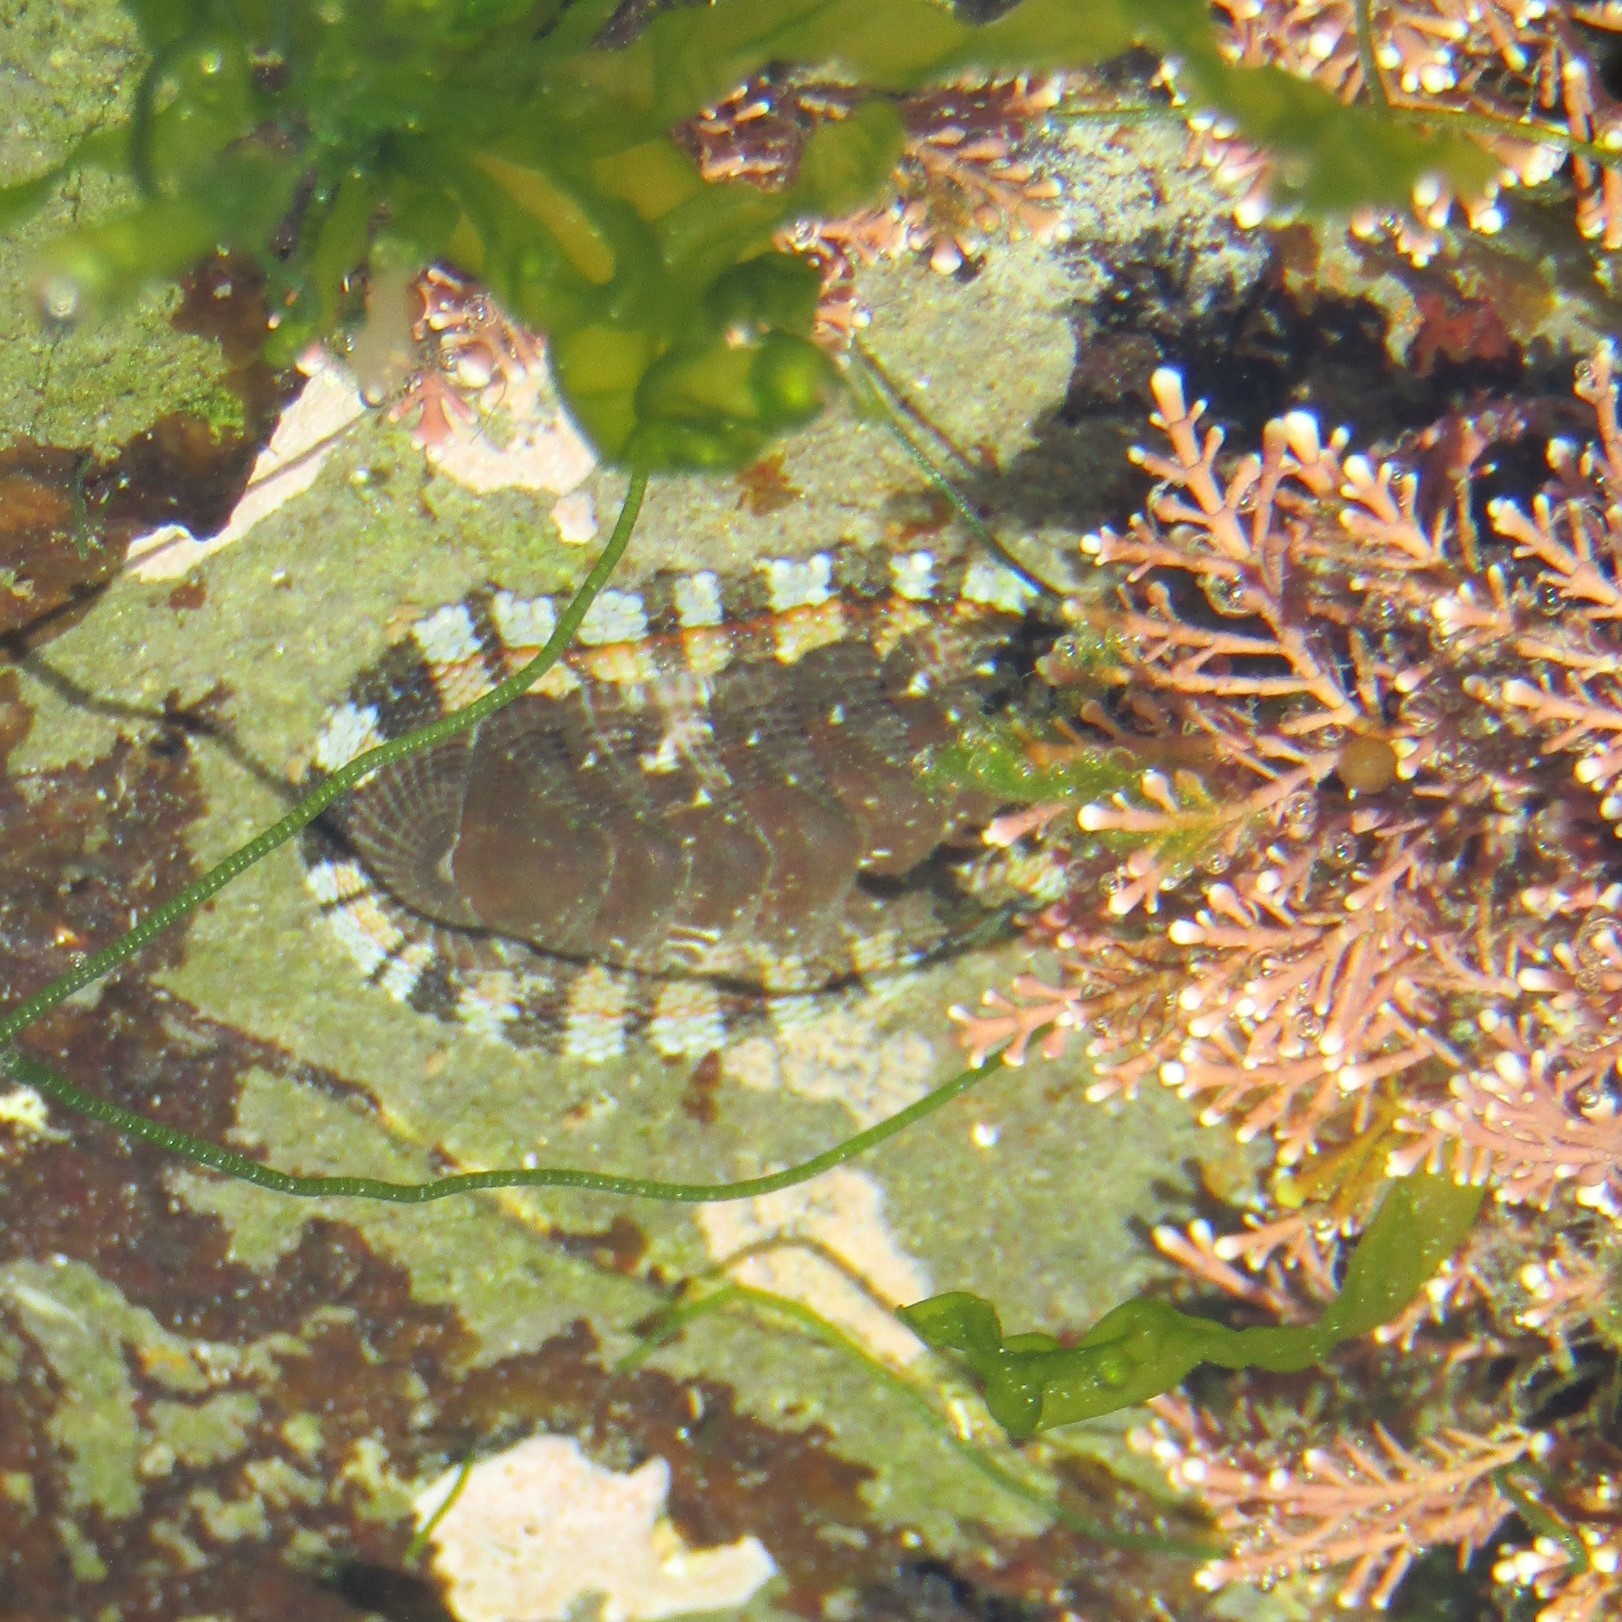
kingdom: Animalia
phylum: Mollusca
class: Polyplacophora
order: Chitonida
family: Chitonidae
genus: Sypharochiton
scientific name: Sypharochiton sinclairi
